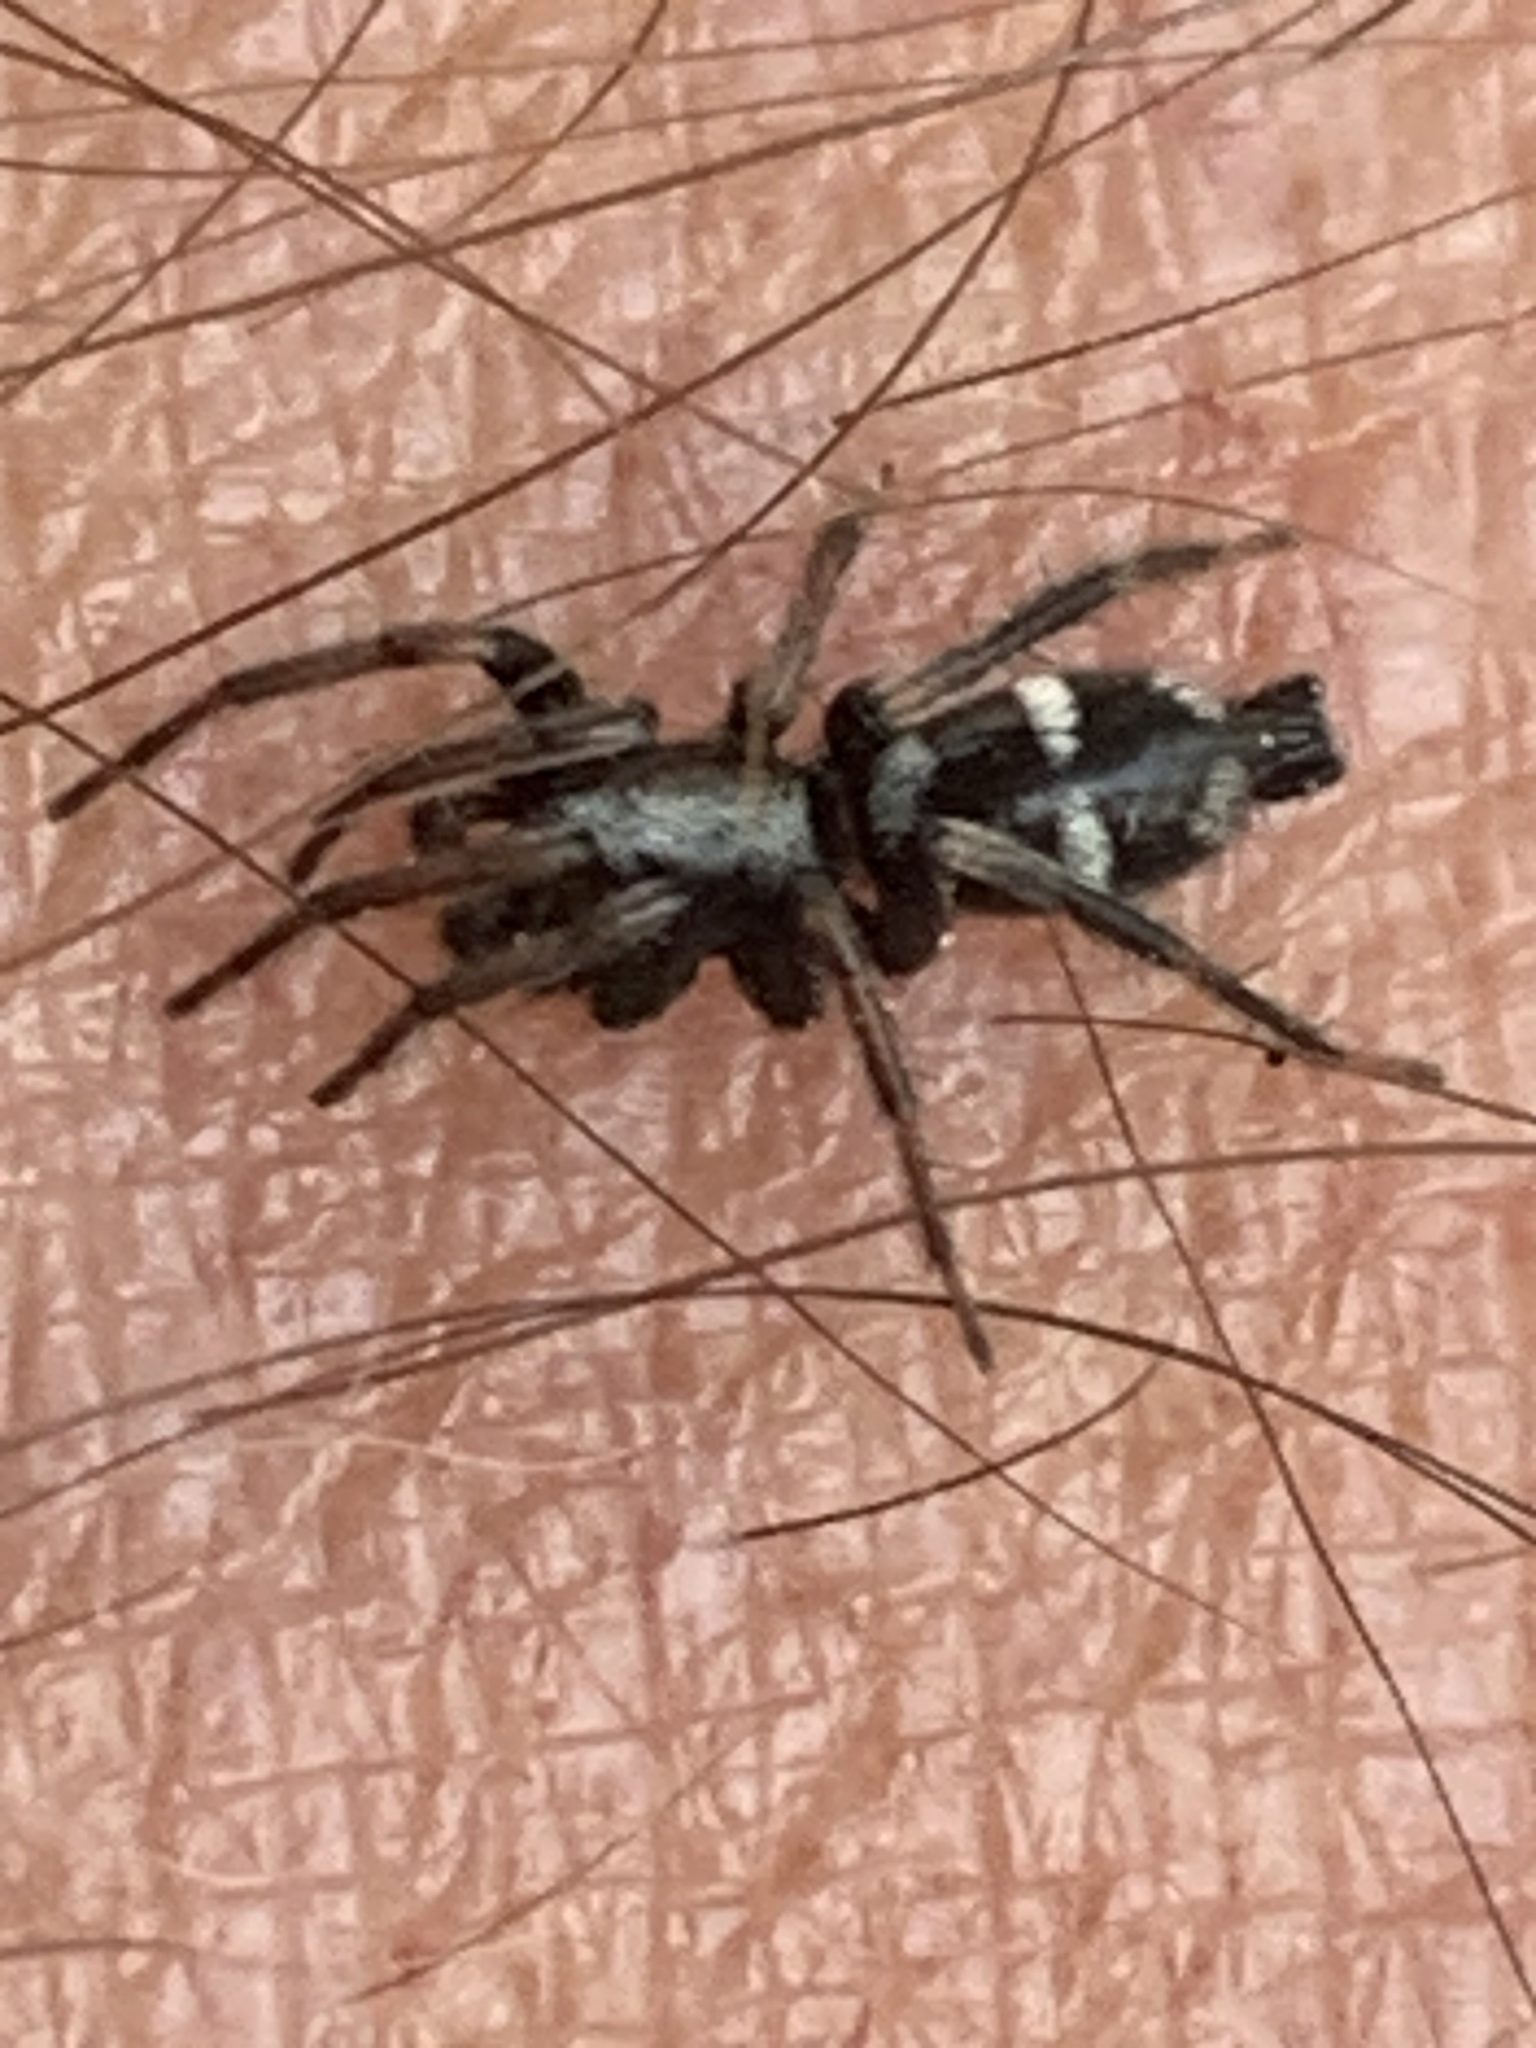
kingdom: Animalia
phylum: Arthropoda
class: Arachnida
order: Araneae
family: Gnaphosidae
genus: Aphantaulax
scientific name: Aphantaulax
